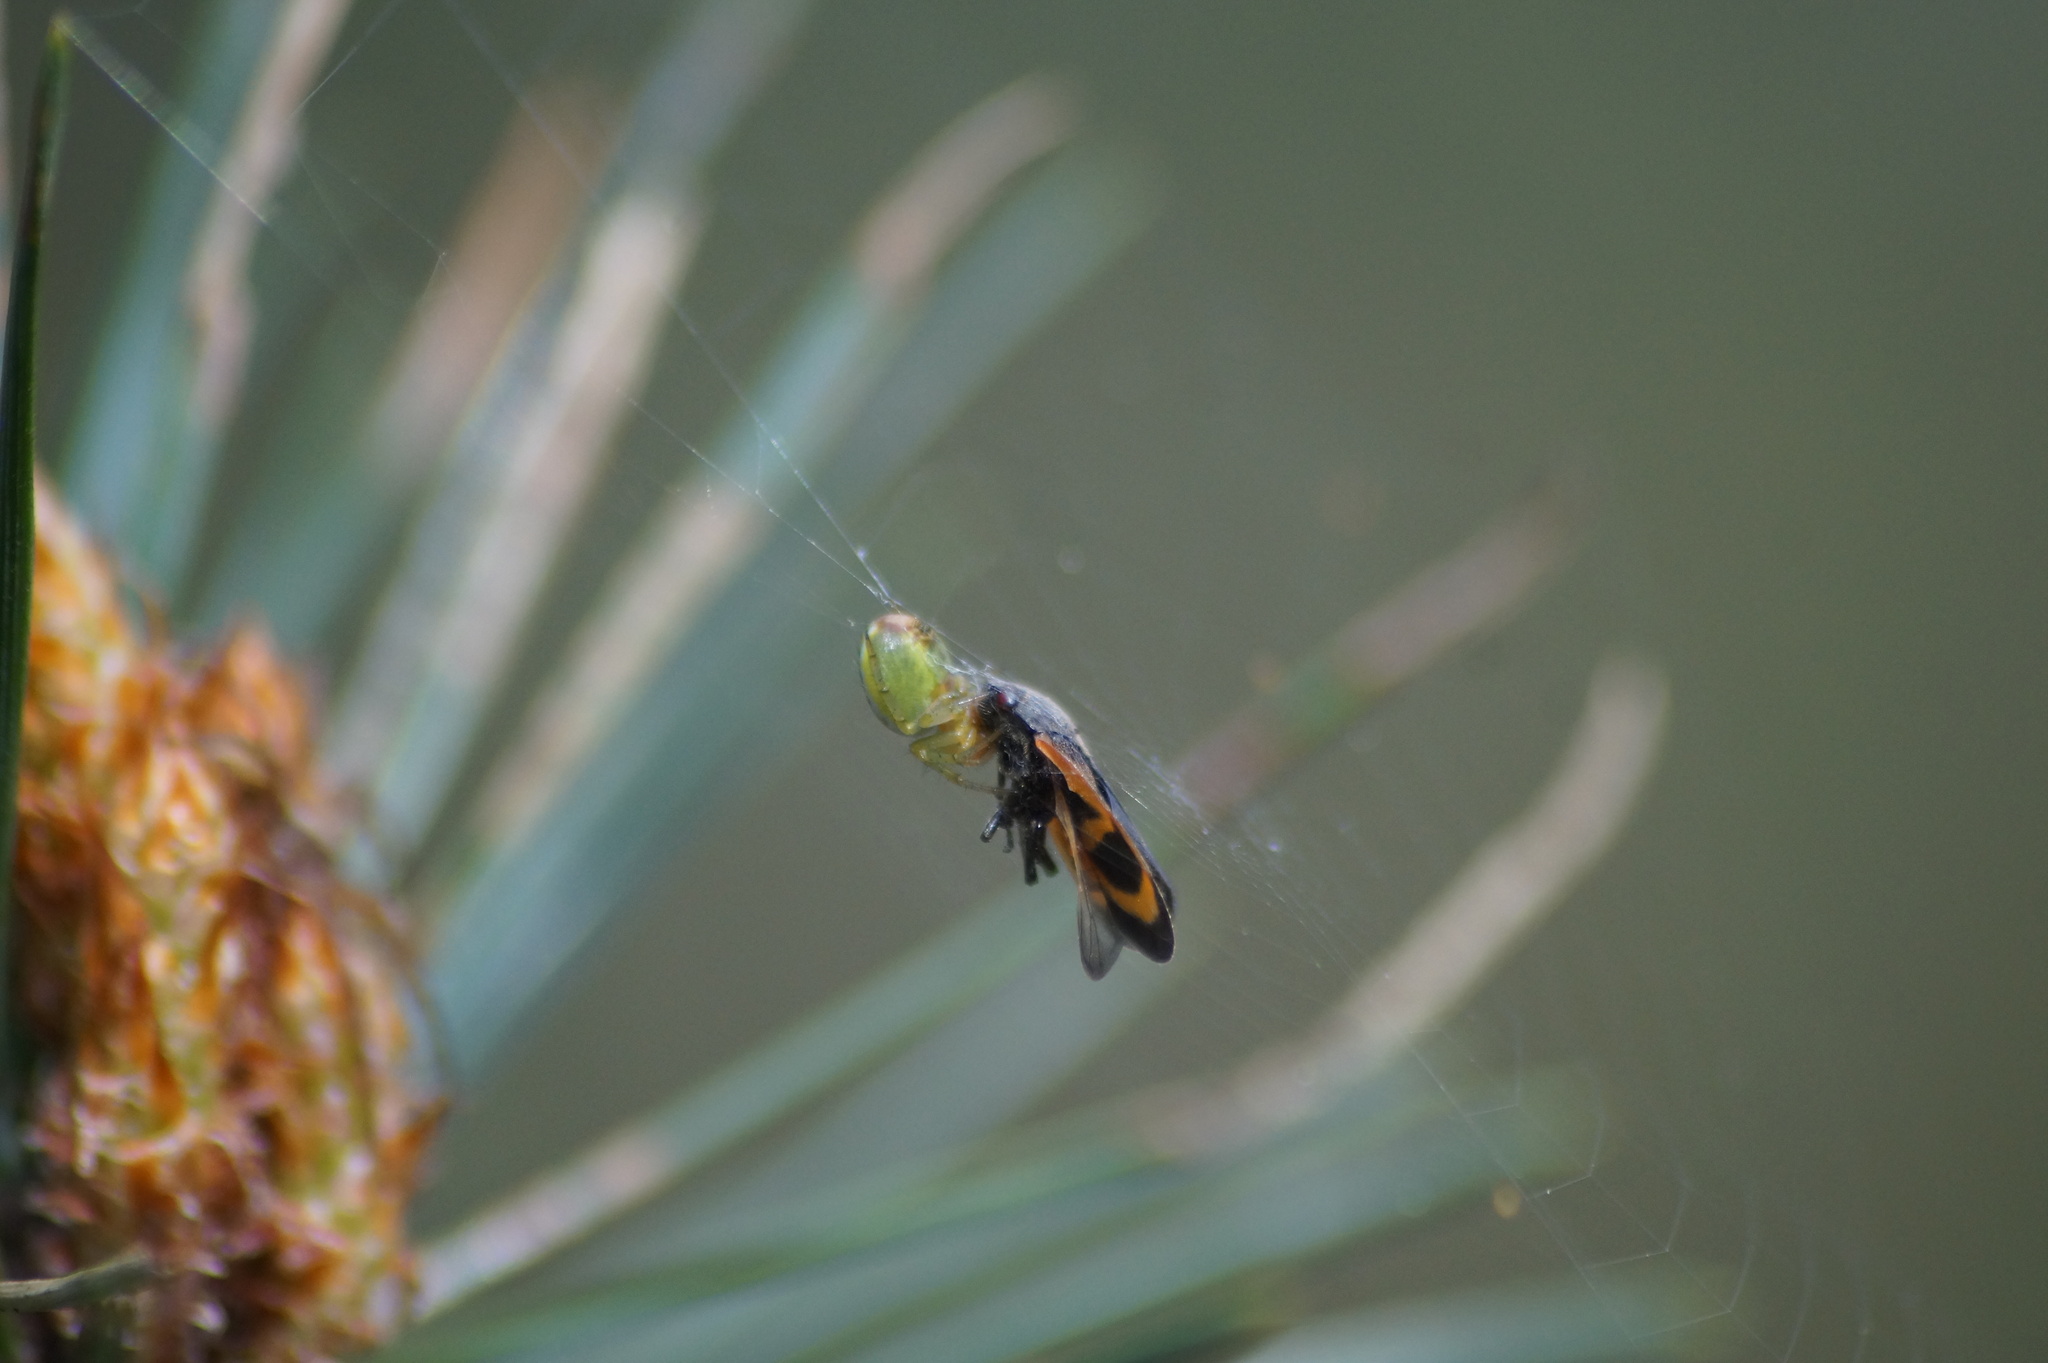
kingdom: Animalia
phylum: Arthropoda
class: Insecta
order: Hemiptera
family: Cercopidae
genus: Haematoloma
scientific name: Haematoloma dorsata
